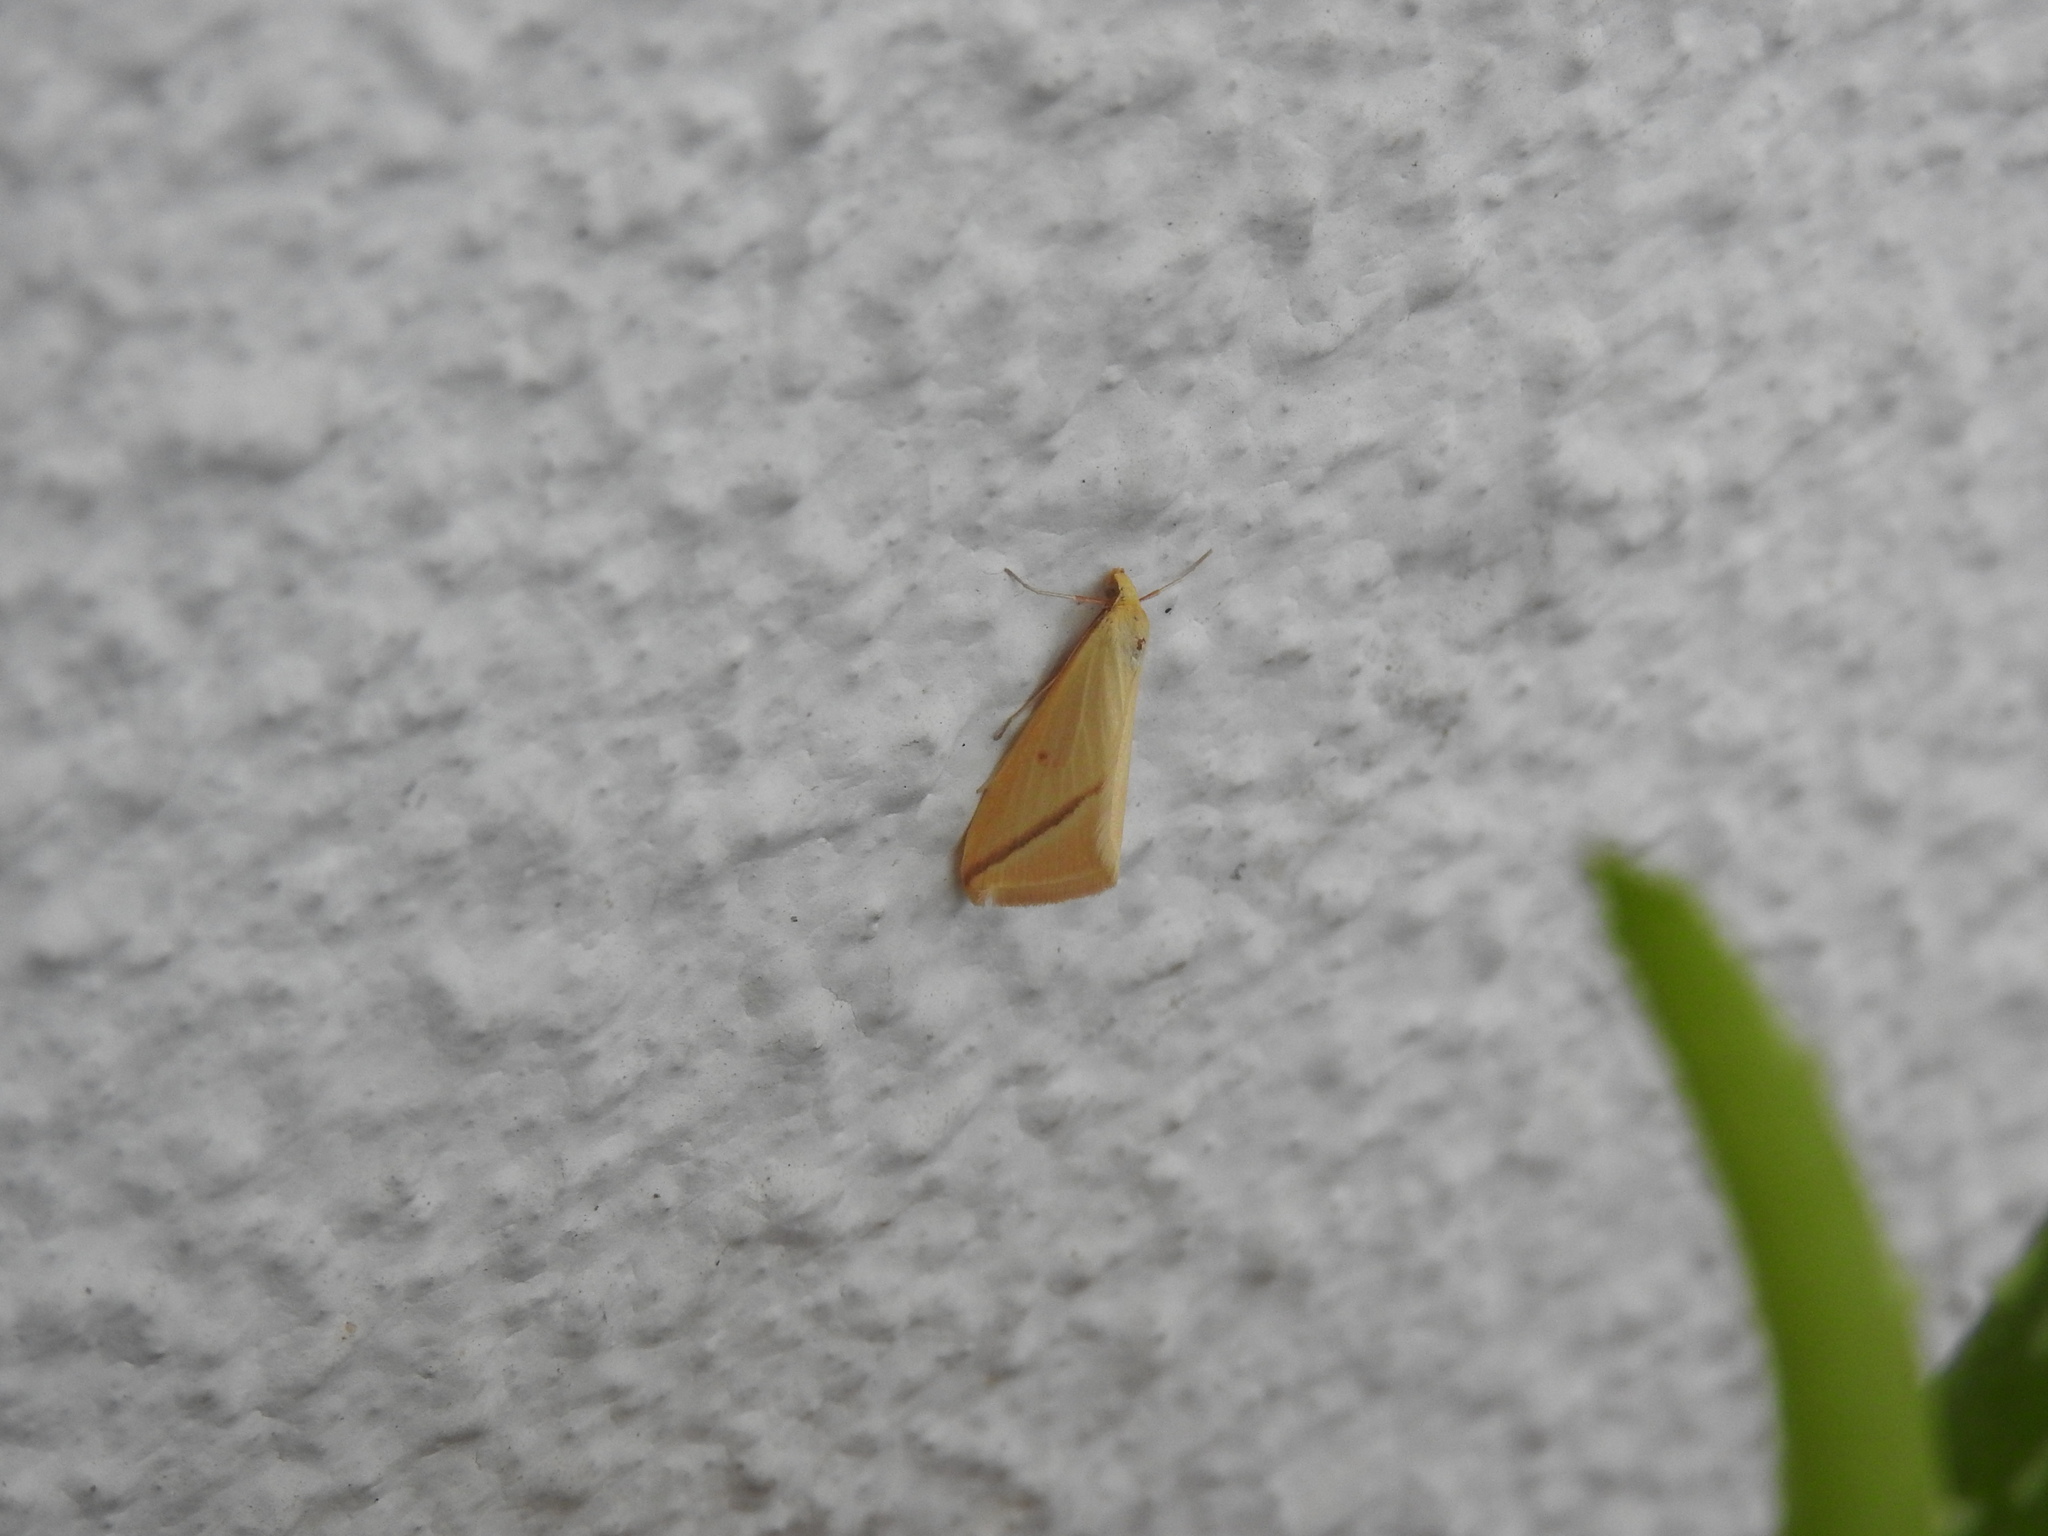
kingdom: Animalia
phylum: Arthropoda
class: Insecta
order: Lepidoptera
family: Geometridae
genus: Rhodometra
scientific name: Rhodometra sacraria
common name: Vestal
